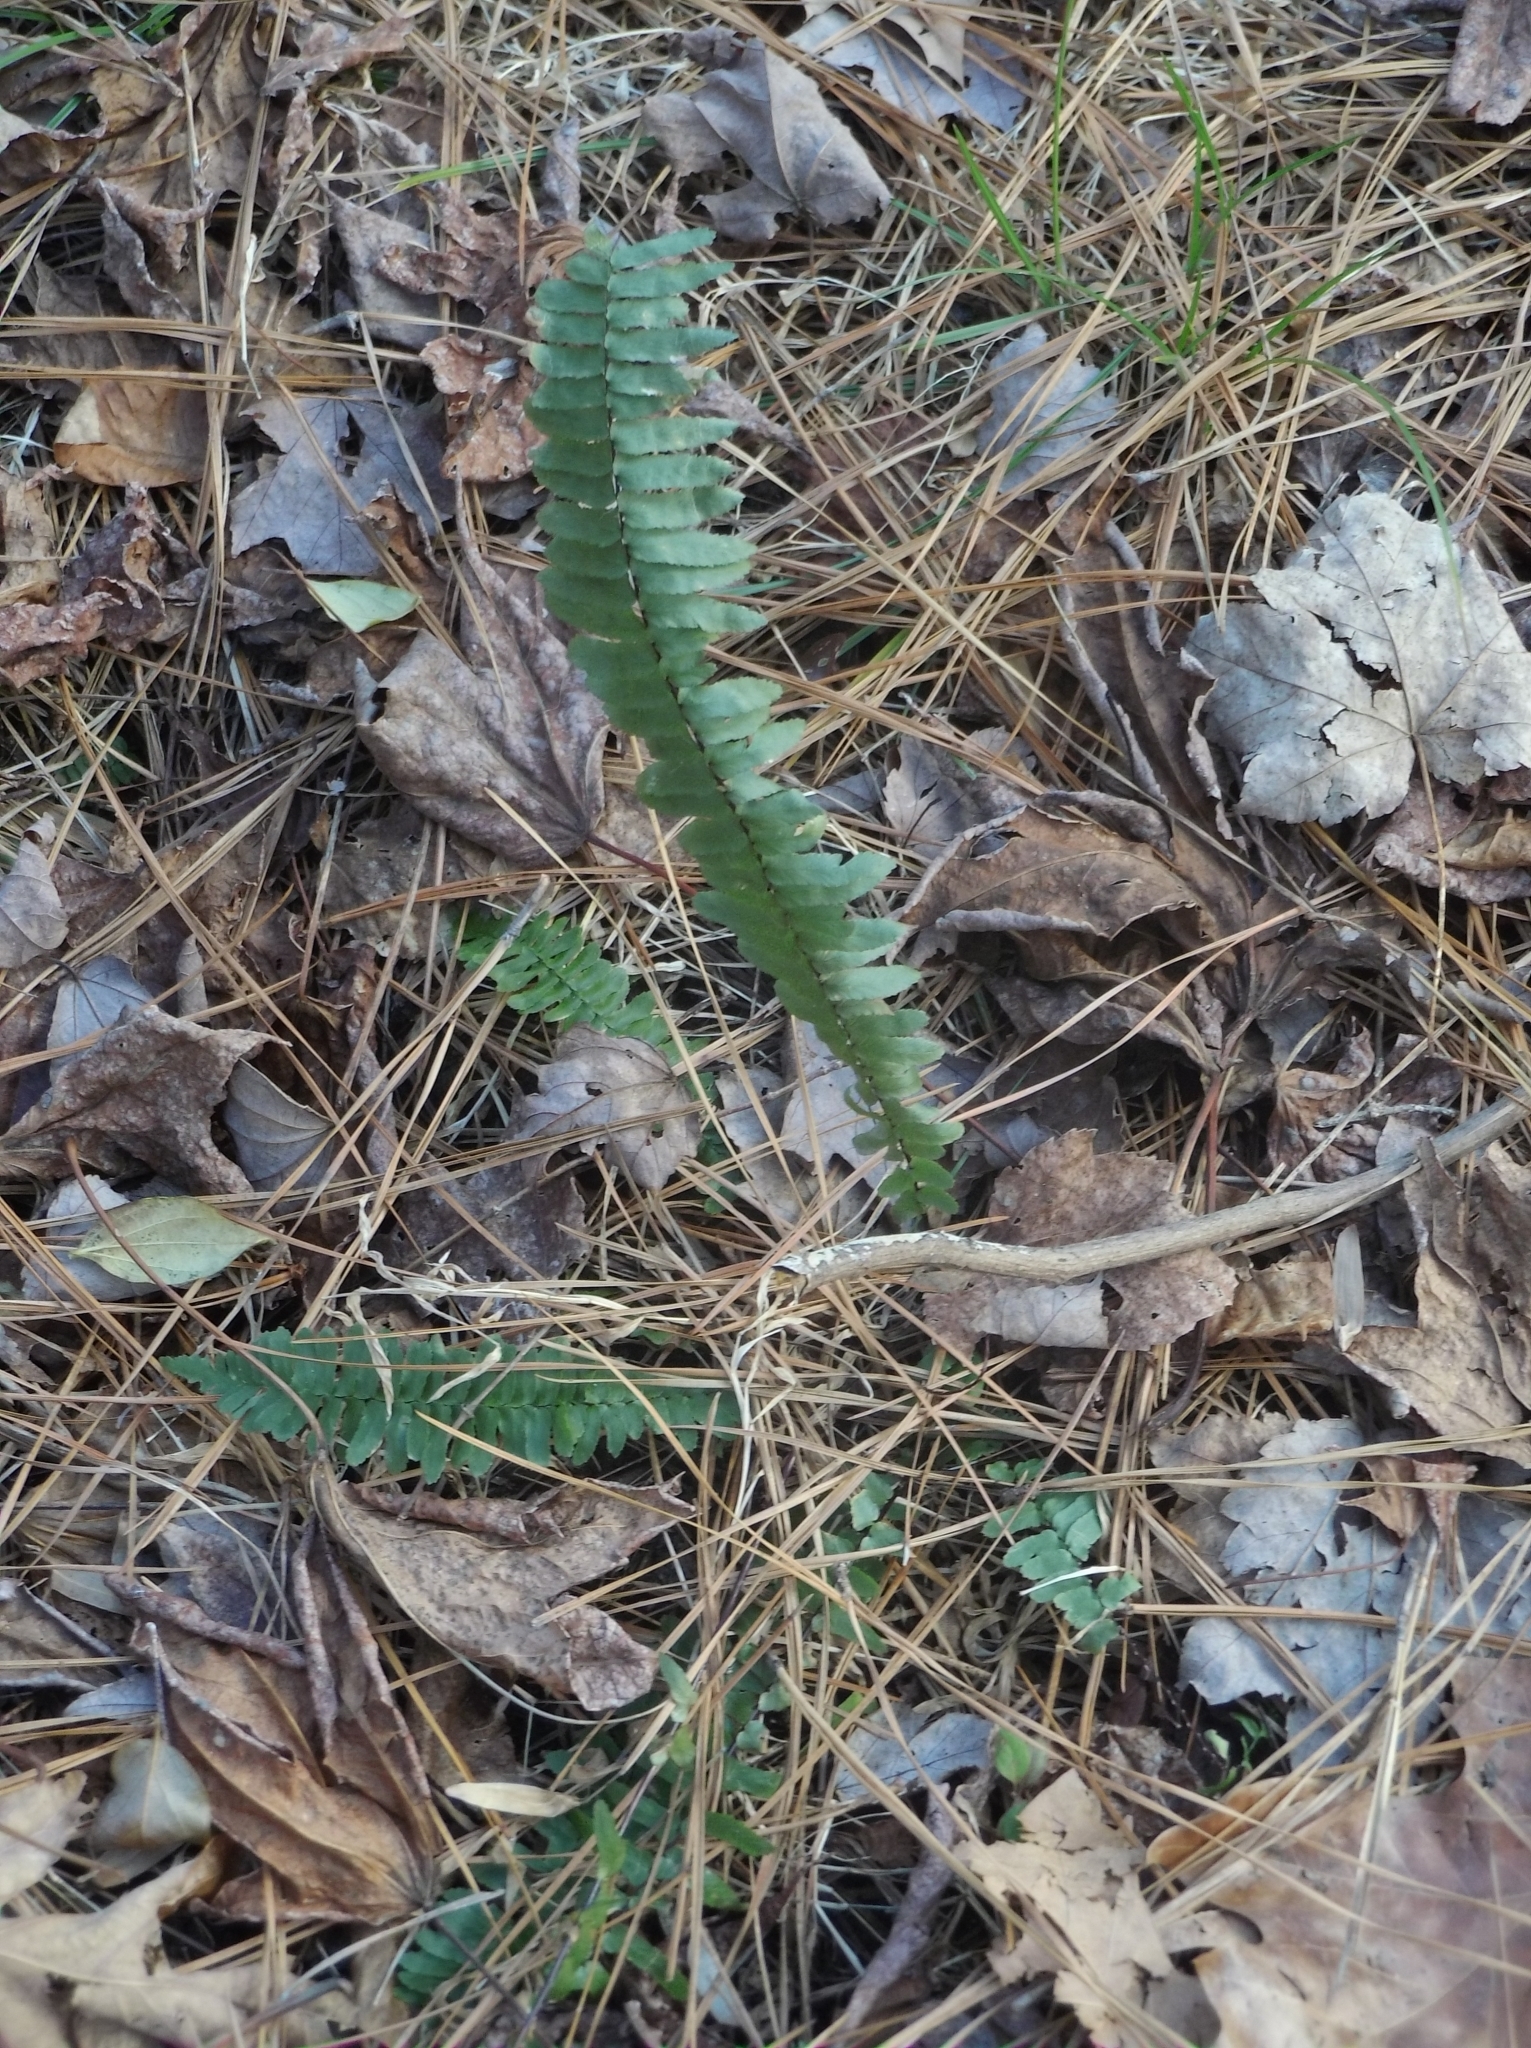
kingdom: Plantae
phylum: Tracheophyta
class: Polypodiopsida
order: Polypodiales
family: Aspleniaceae
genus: Asplenium
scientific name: Asplenium platyneuron
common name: Ebony spleenwort
